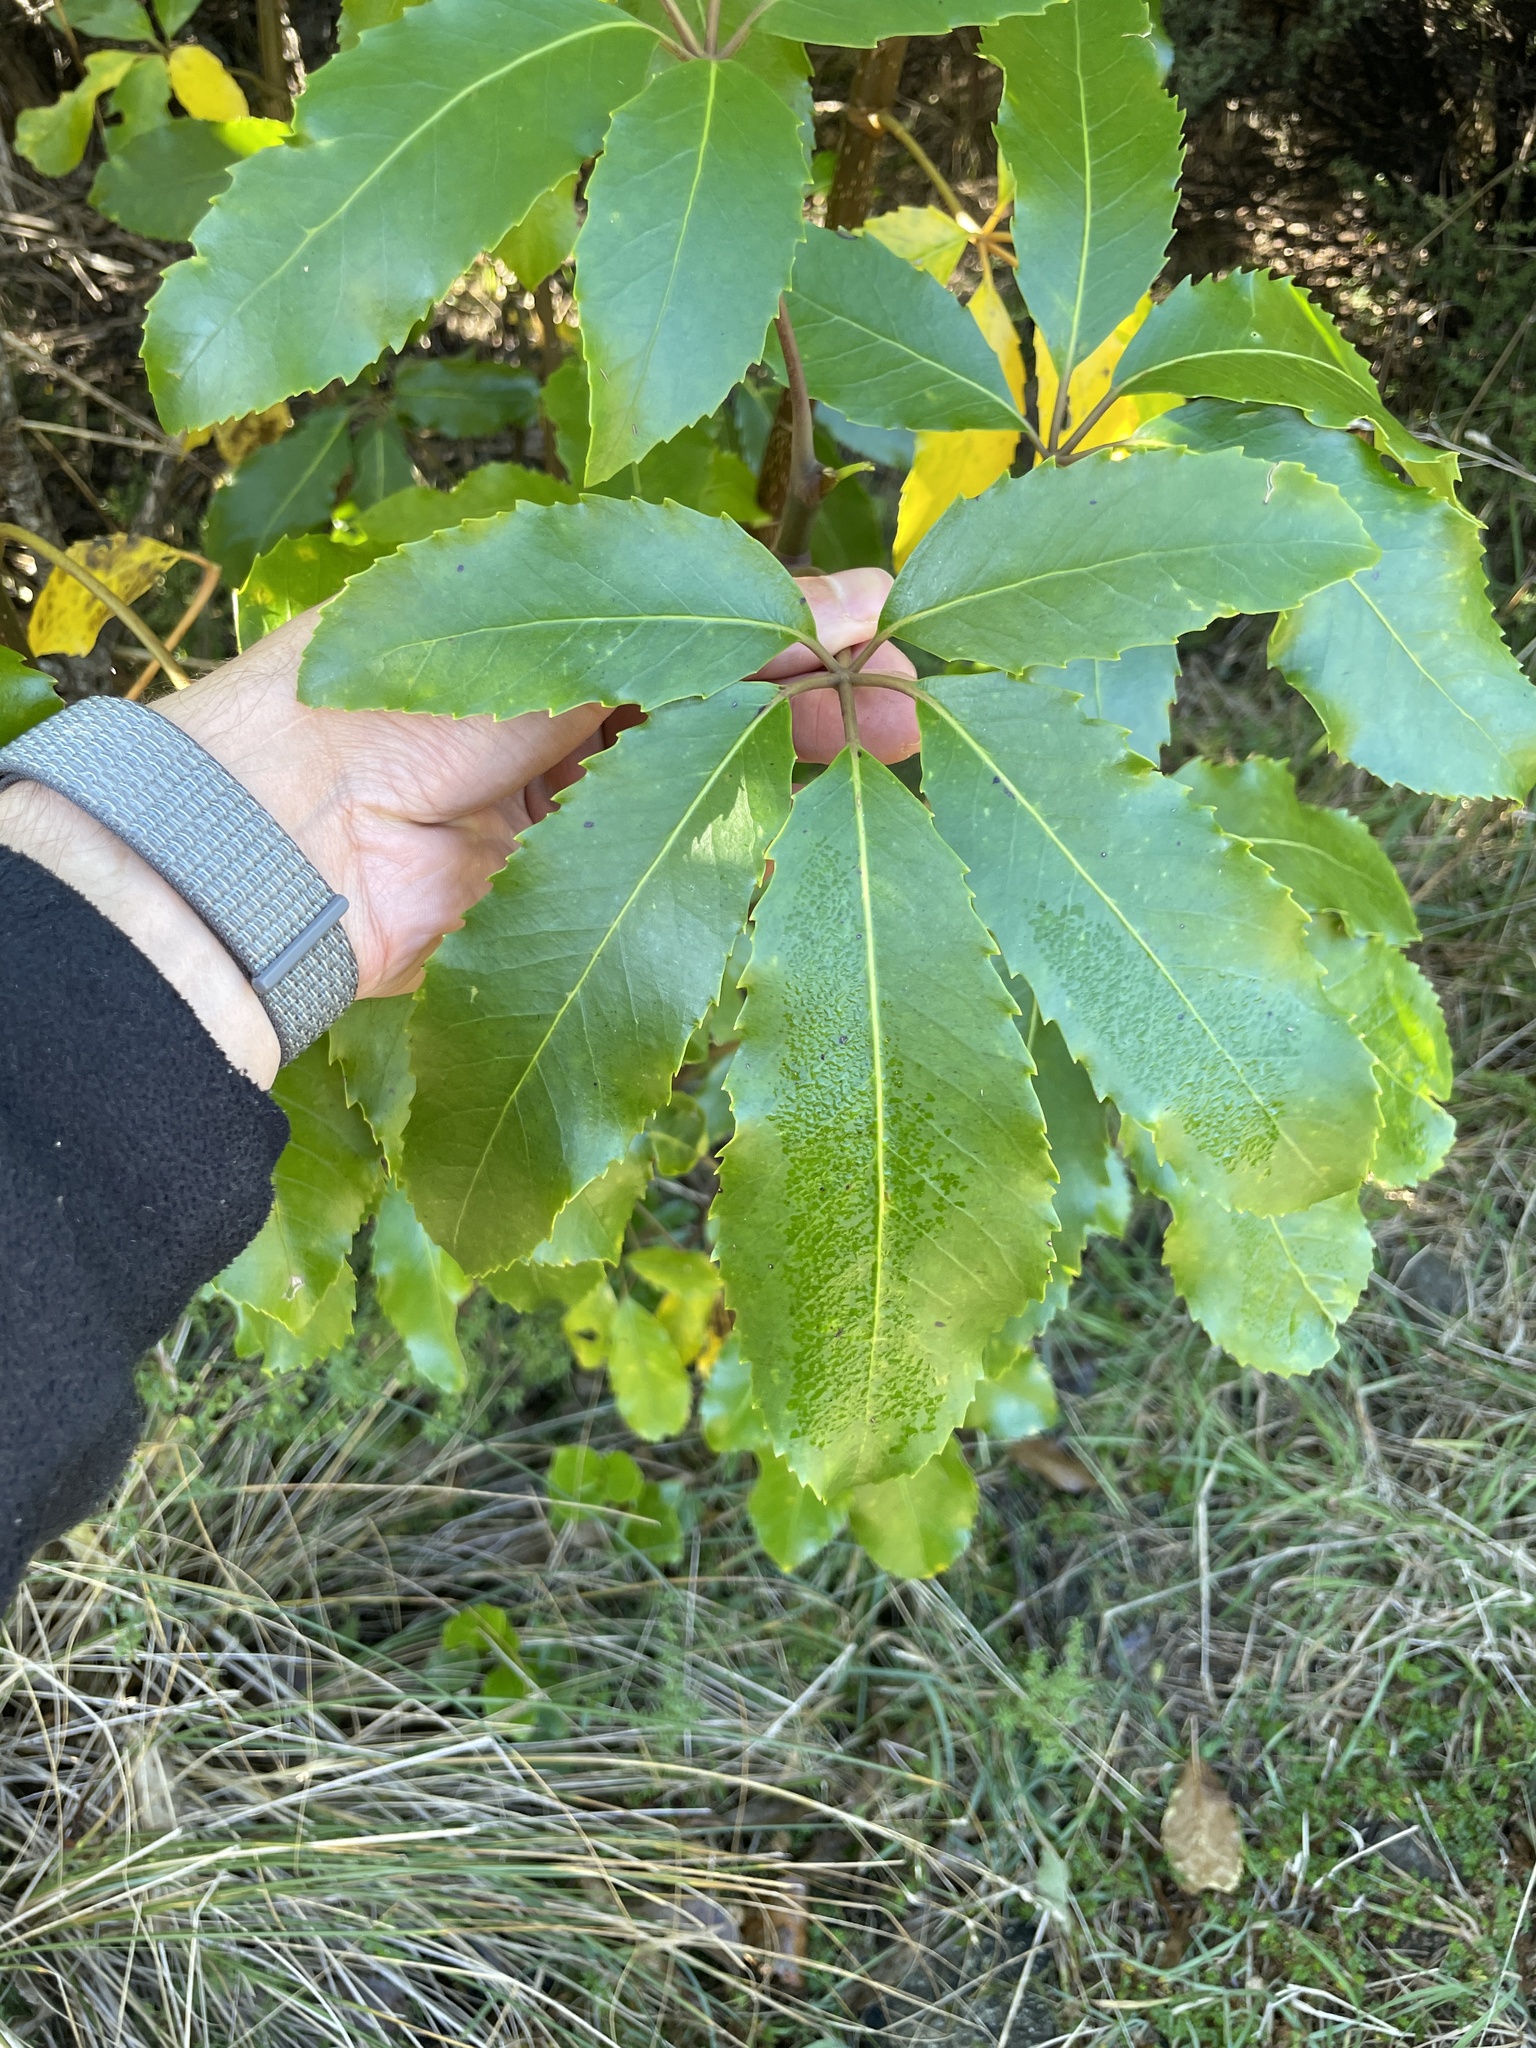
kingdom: Plantae
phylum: Tracheophyta
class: Magnoliopsida
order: Apiales
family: Araliaceae
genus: Neopanax
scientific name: Neopanax arboreus
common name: Five-fingers
